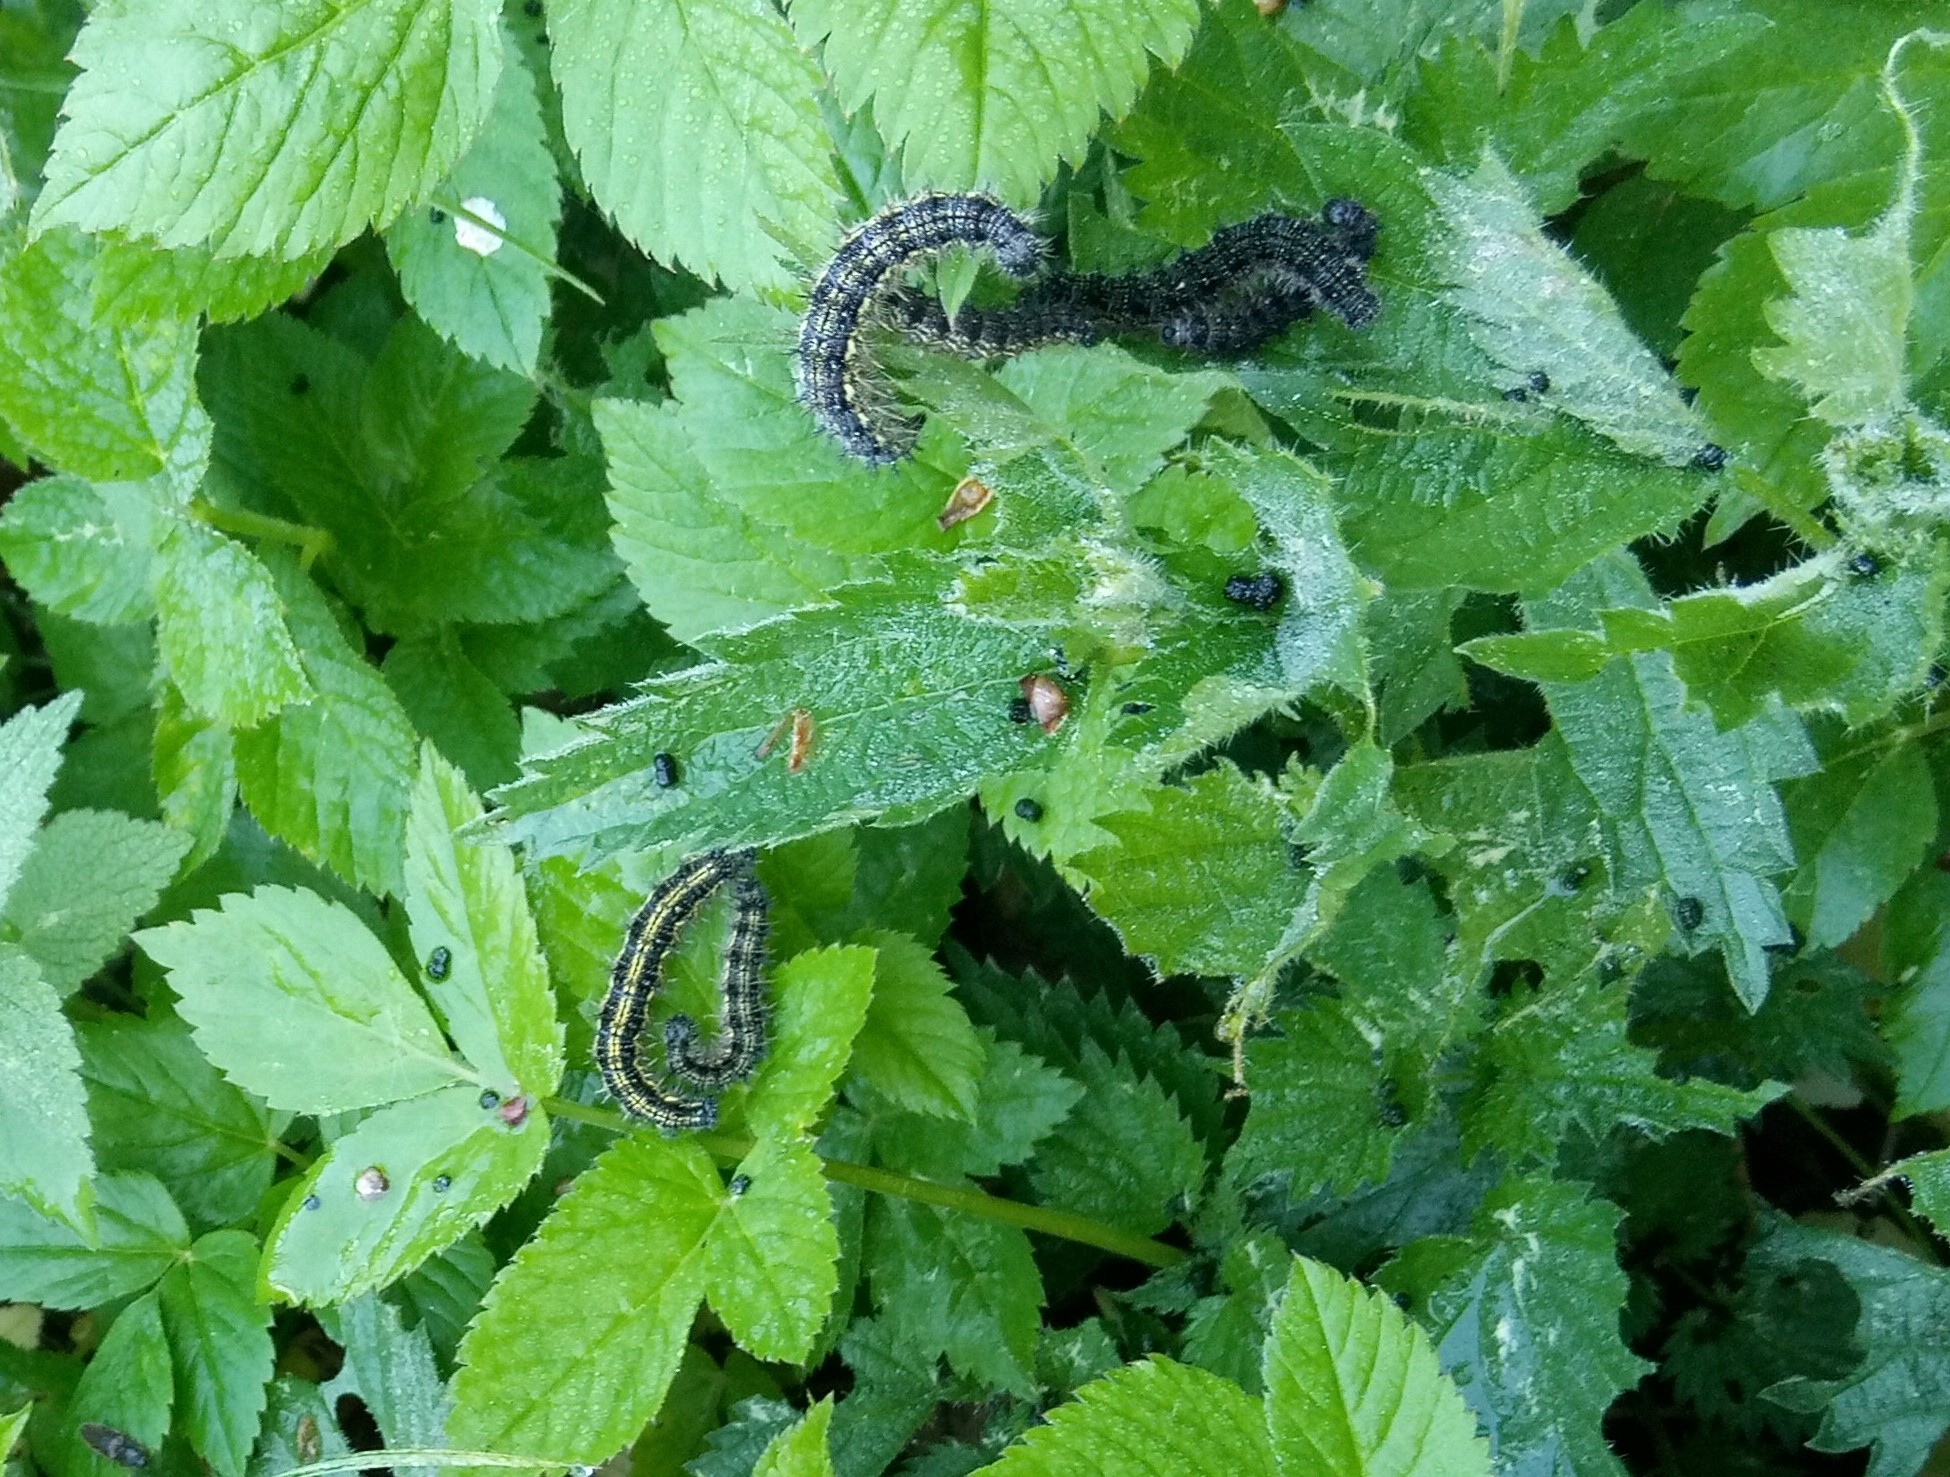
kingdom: Animalia
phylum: Arthropoda
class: Insecta
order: Lepidoptera
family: Nymphalidae
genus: Aglais
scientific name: Aglais urticae
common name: Small tortoiseshell
